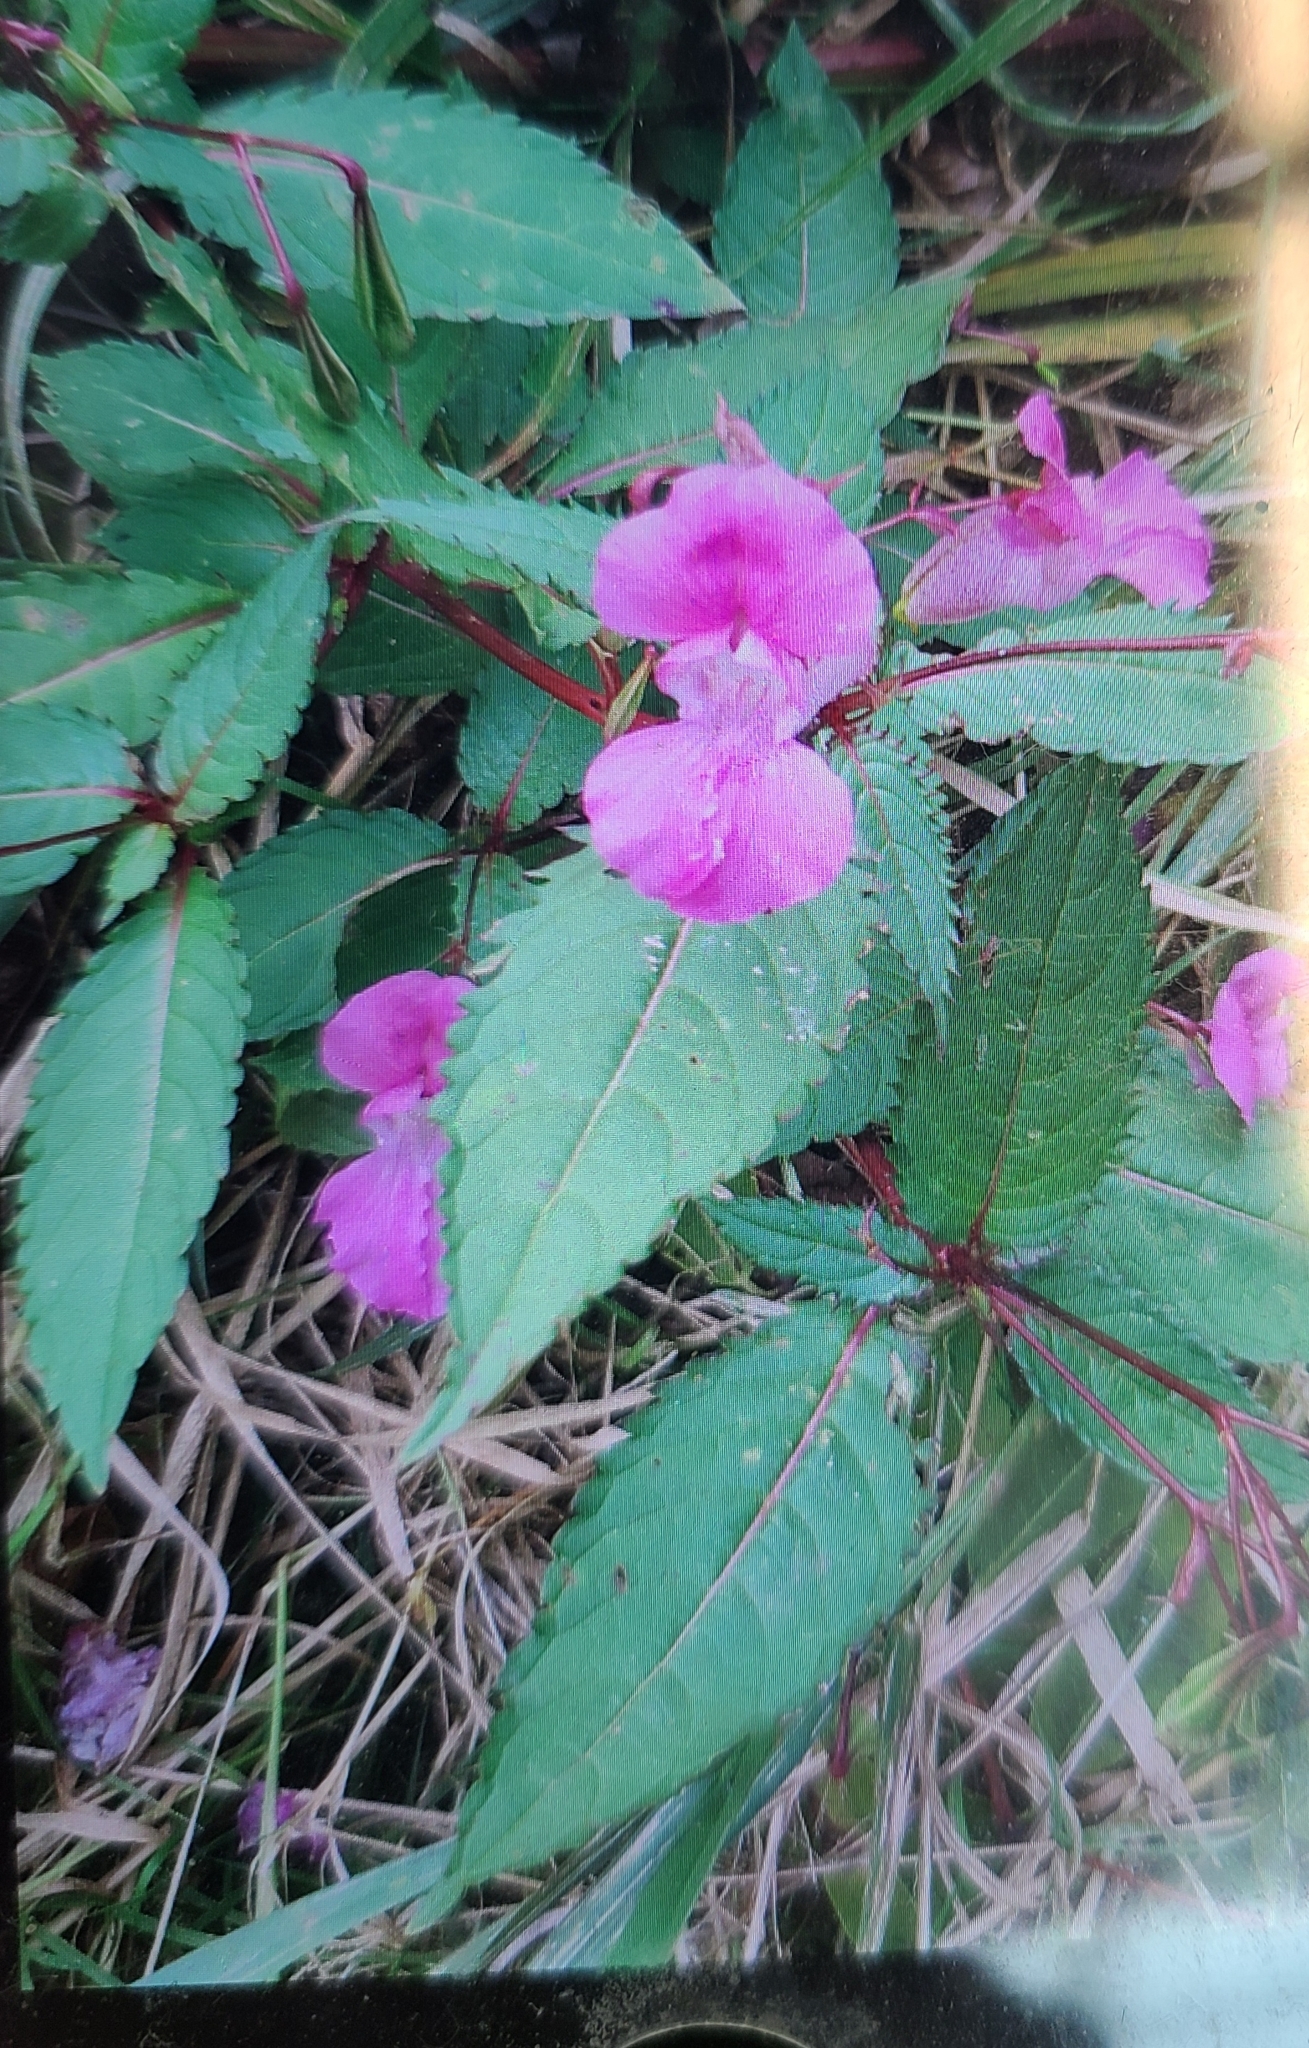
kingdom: Plantae
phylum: Tracheophyta
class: Magnoliopsida
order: Ericales
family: Balsaminaceae
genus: Impatiens
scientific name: Impatiens glandulifera
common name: Himalayan balsam
